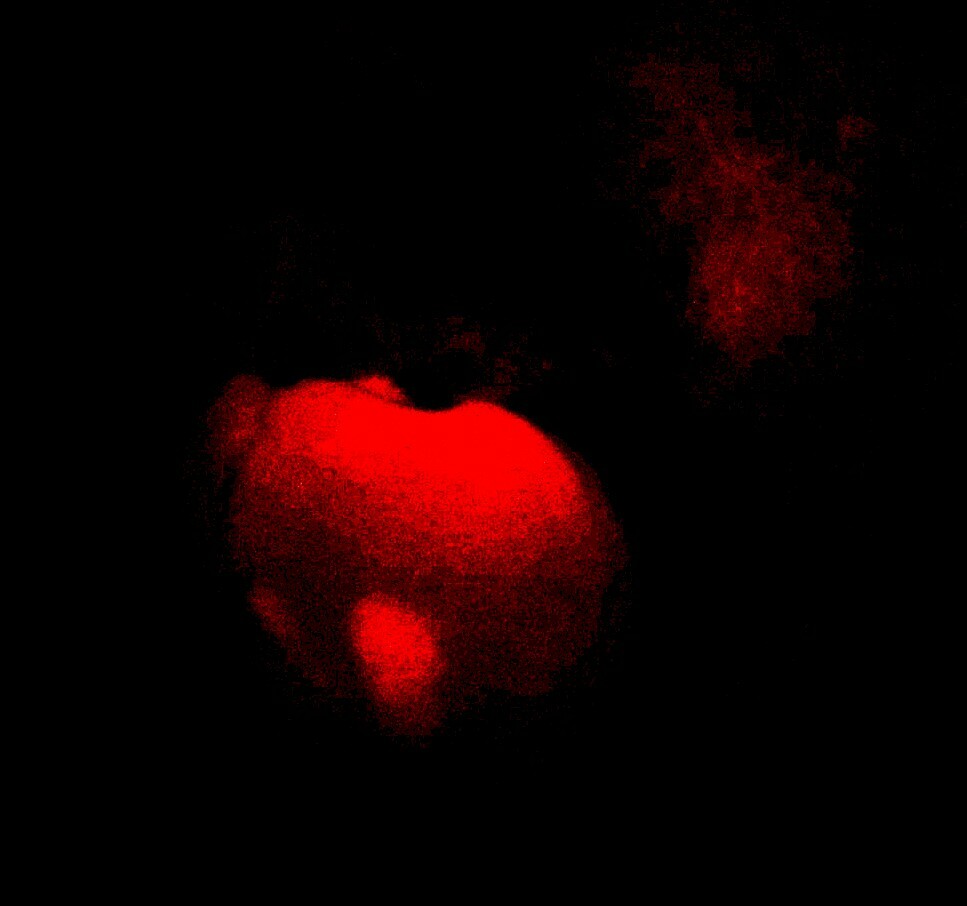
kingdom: Animalia
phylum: Chordata
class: Mammalia
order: Proboscidea
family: Elephantidae
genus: Loxodonta
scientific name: Loxodonta africana
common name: African elephant
